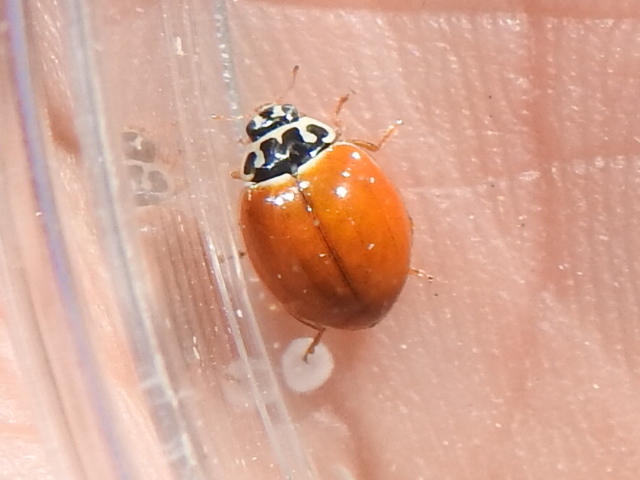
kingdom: Animalia
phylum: Arthropoda
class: Insecta
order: Coleoptera
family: Coccinellidae
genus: Cycloneda
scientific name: Cycloneda munda
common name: Polished lady beetle
